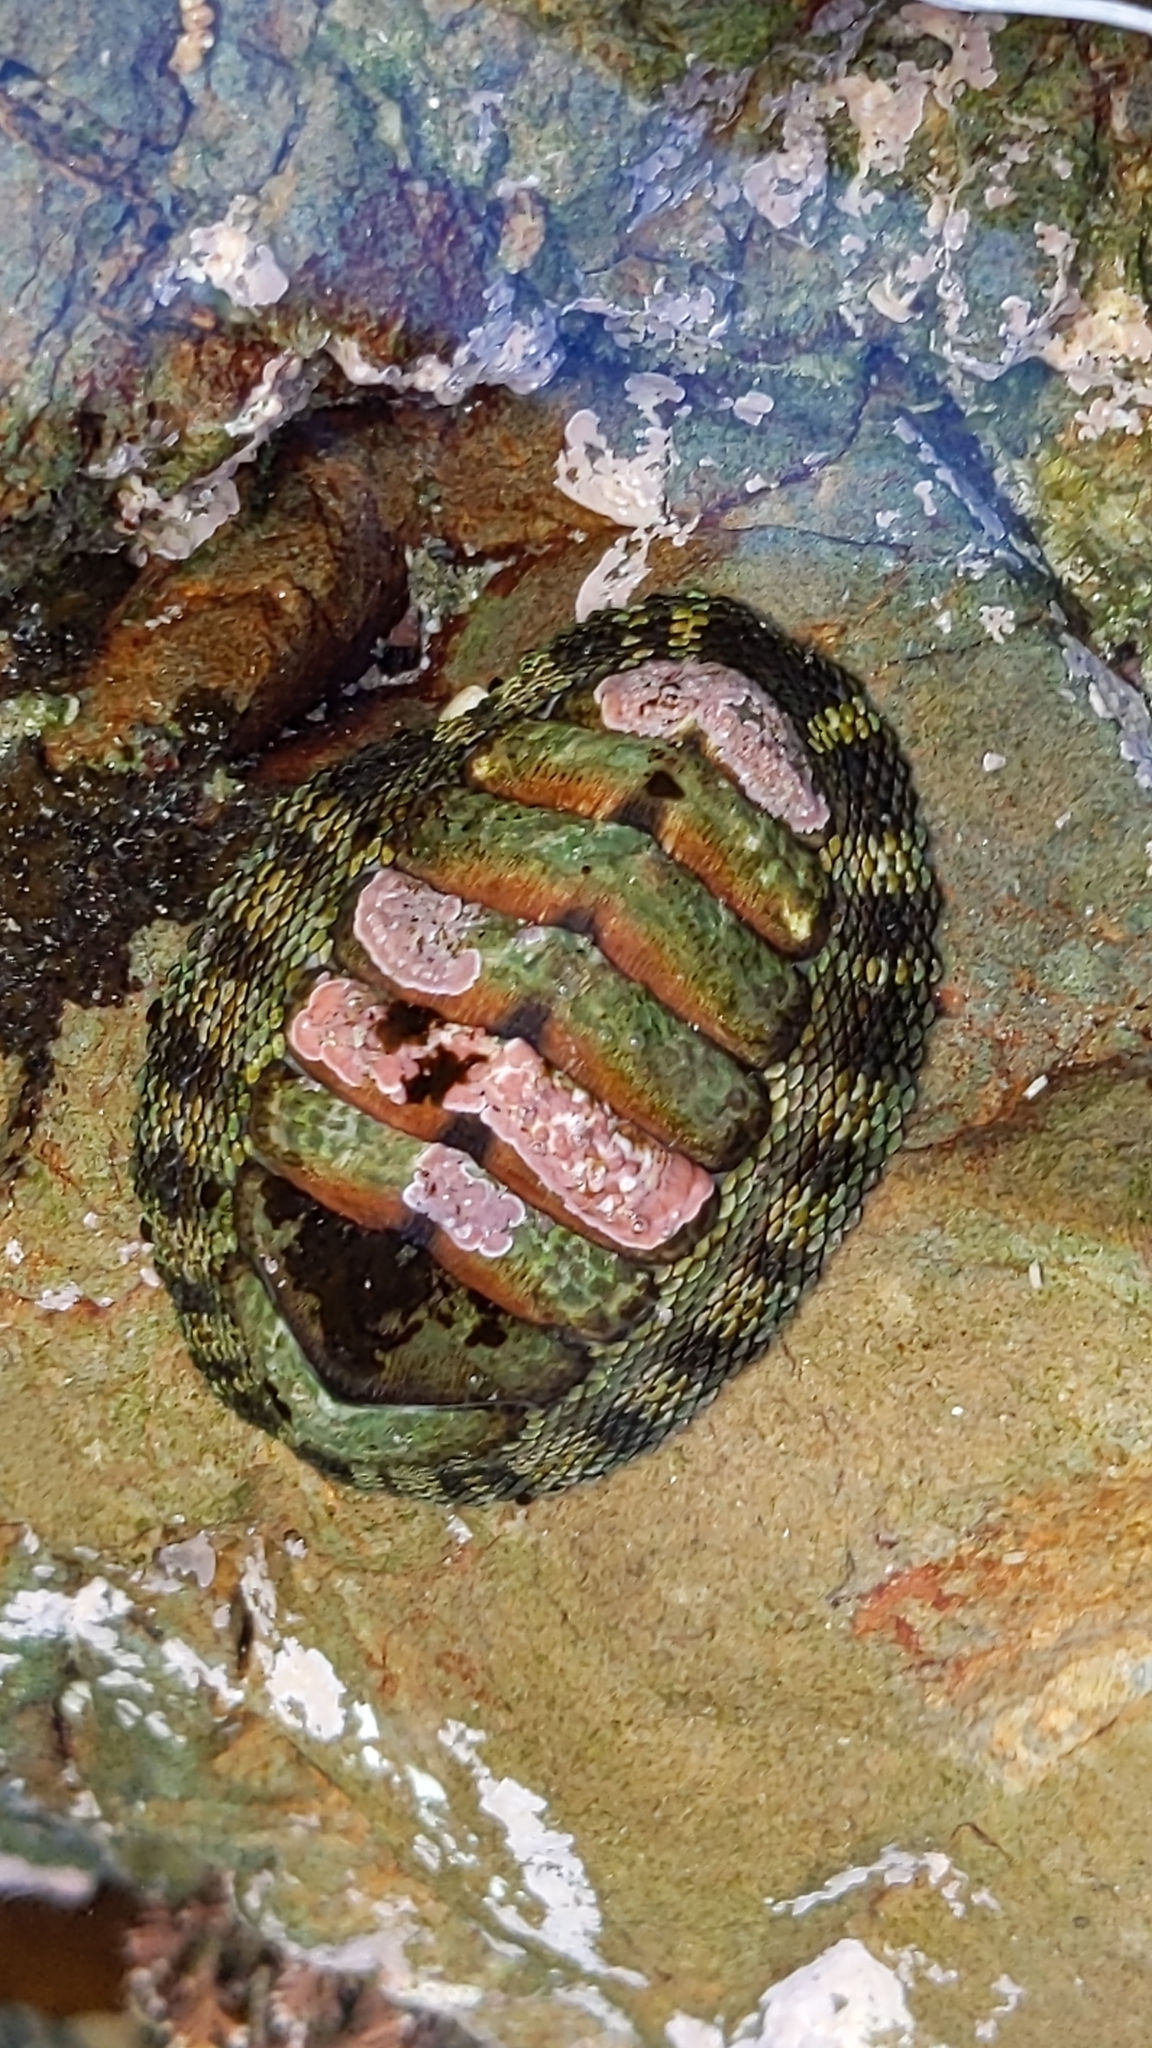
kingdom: Animalia
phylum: Mollusca
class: Polyplacophora
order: Chitonida
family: Chitonidae
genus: Sypharochiton
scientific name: Sypharochiton pelliserpentis
